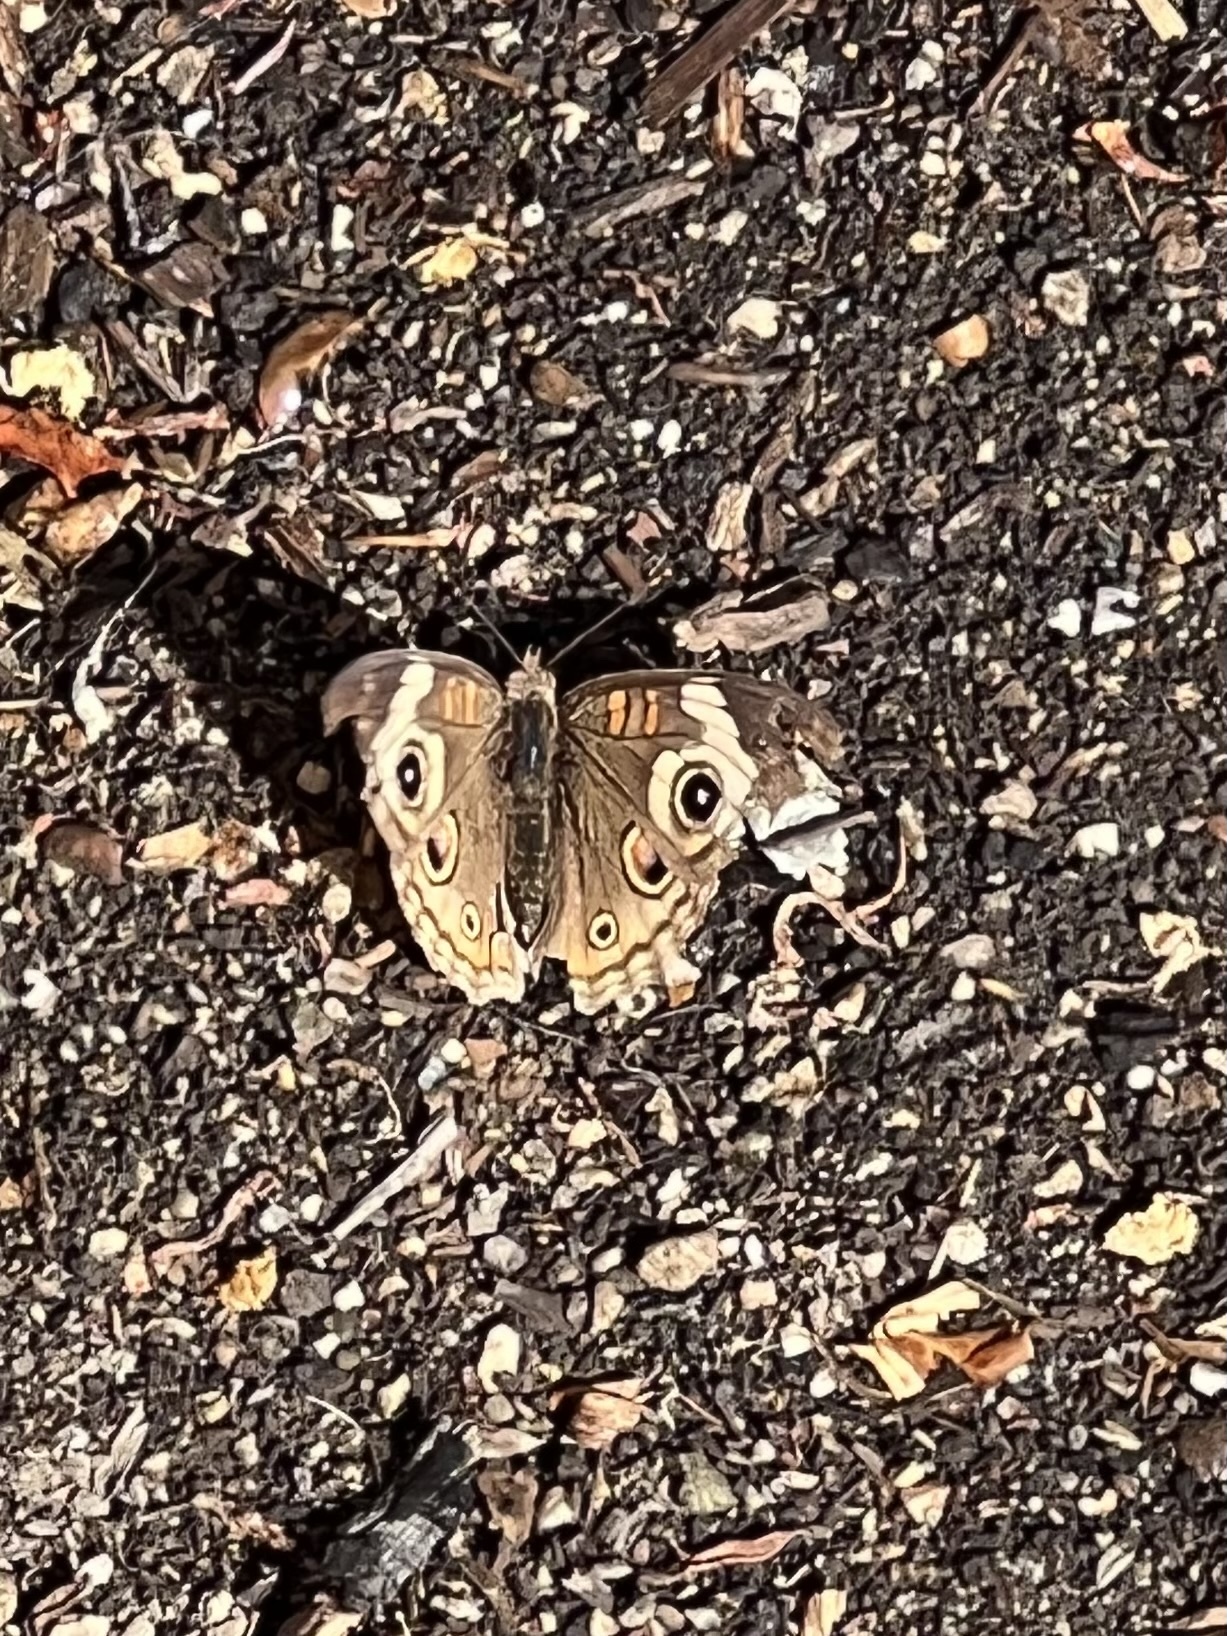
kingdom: Animalia
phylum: Arthropoda
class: Insecta
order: Lepidoptera
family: Nymphalidae
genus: Junonia
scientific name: Junonia grisea
